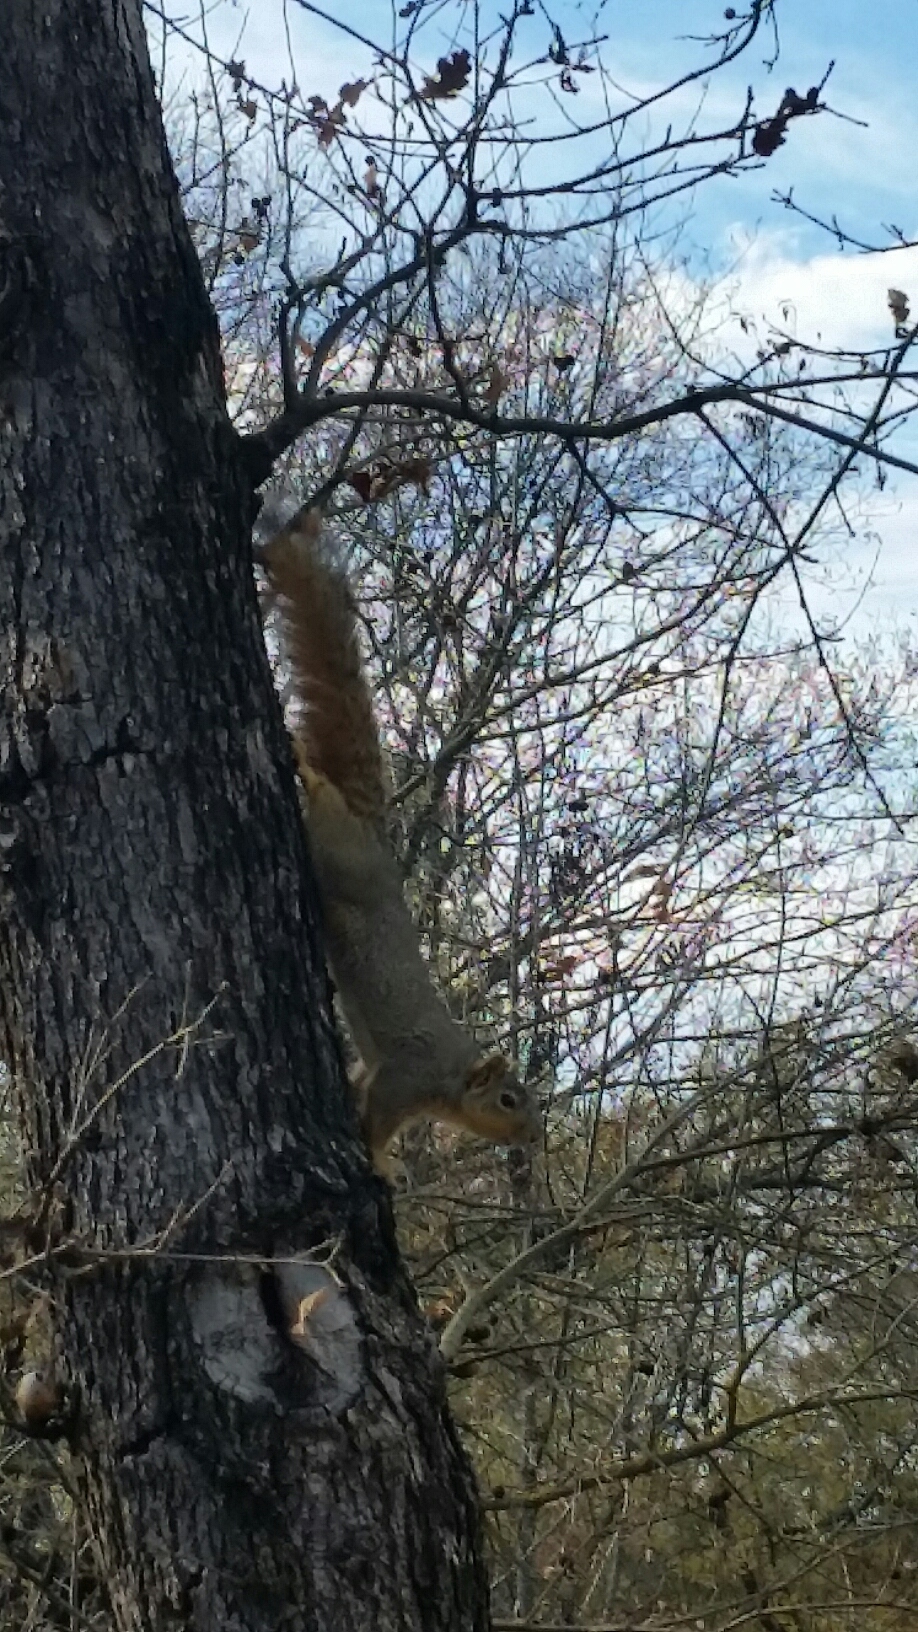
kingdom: Animalia
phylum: Chordata
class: Mammalia
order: Rodentia
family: Sciuridae
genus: Sciurus
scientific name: Sciurus niger
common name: Fox squirrel
